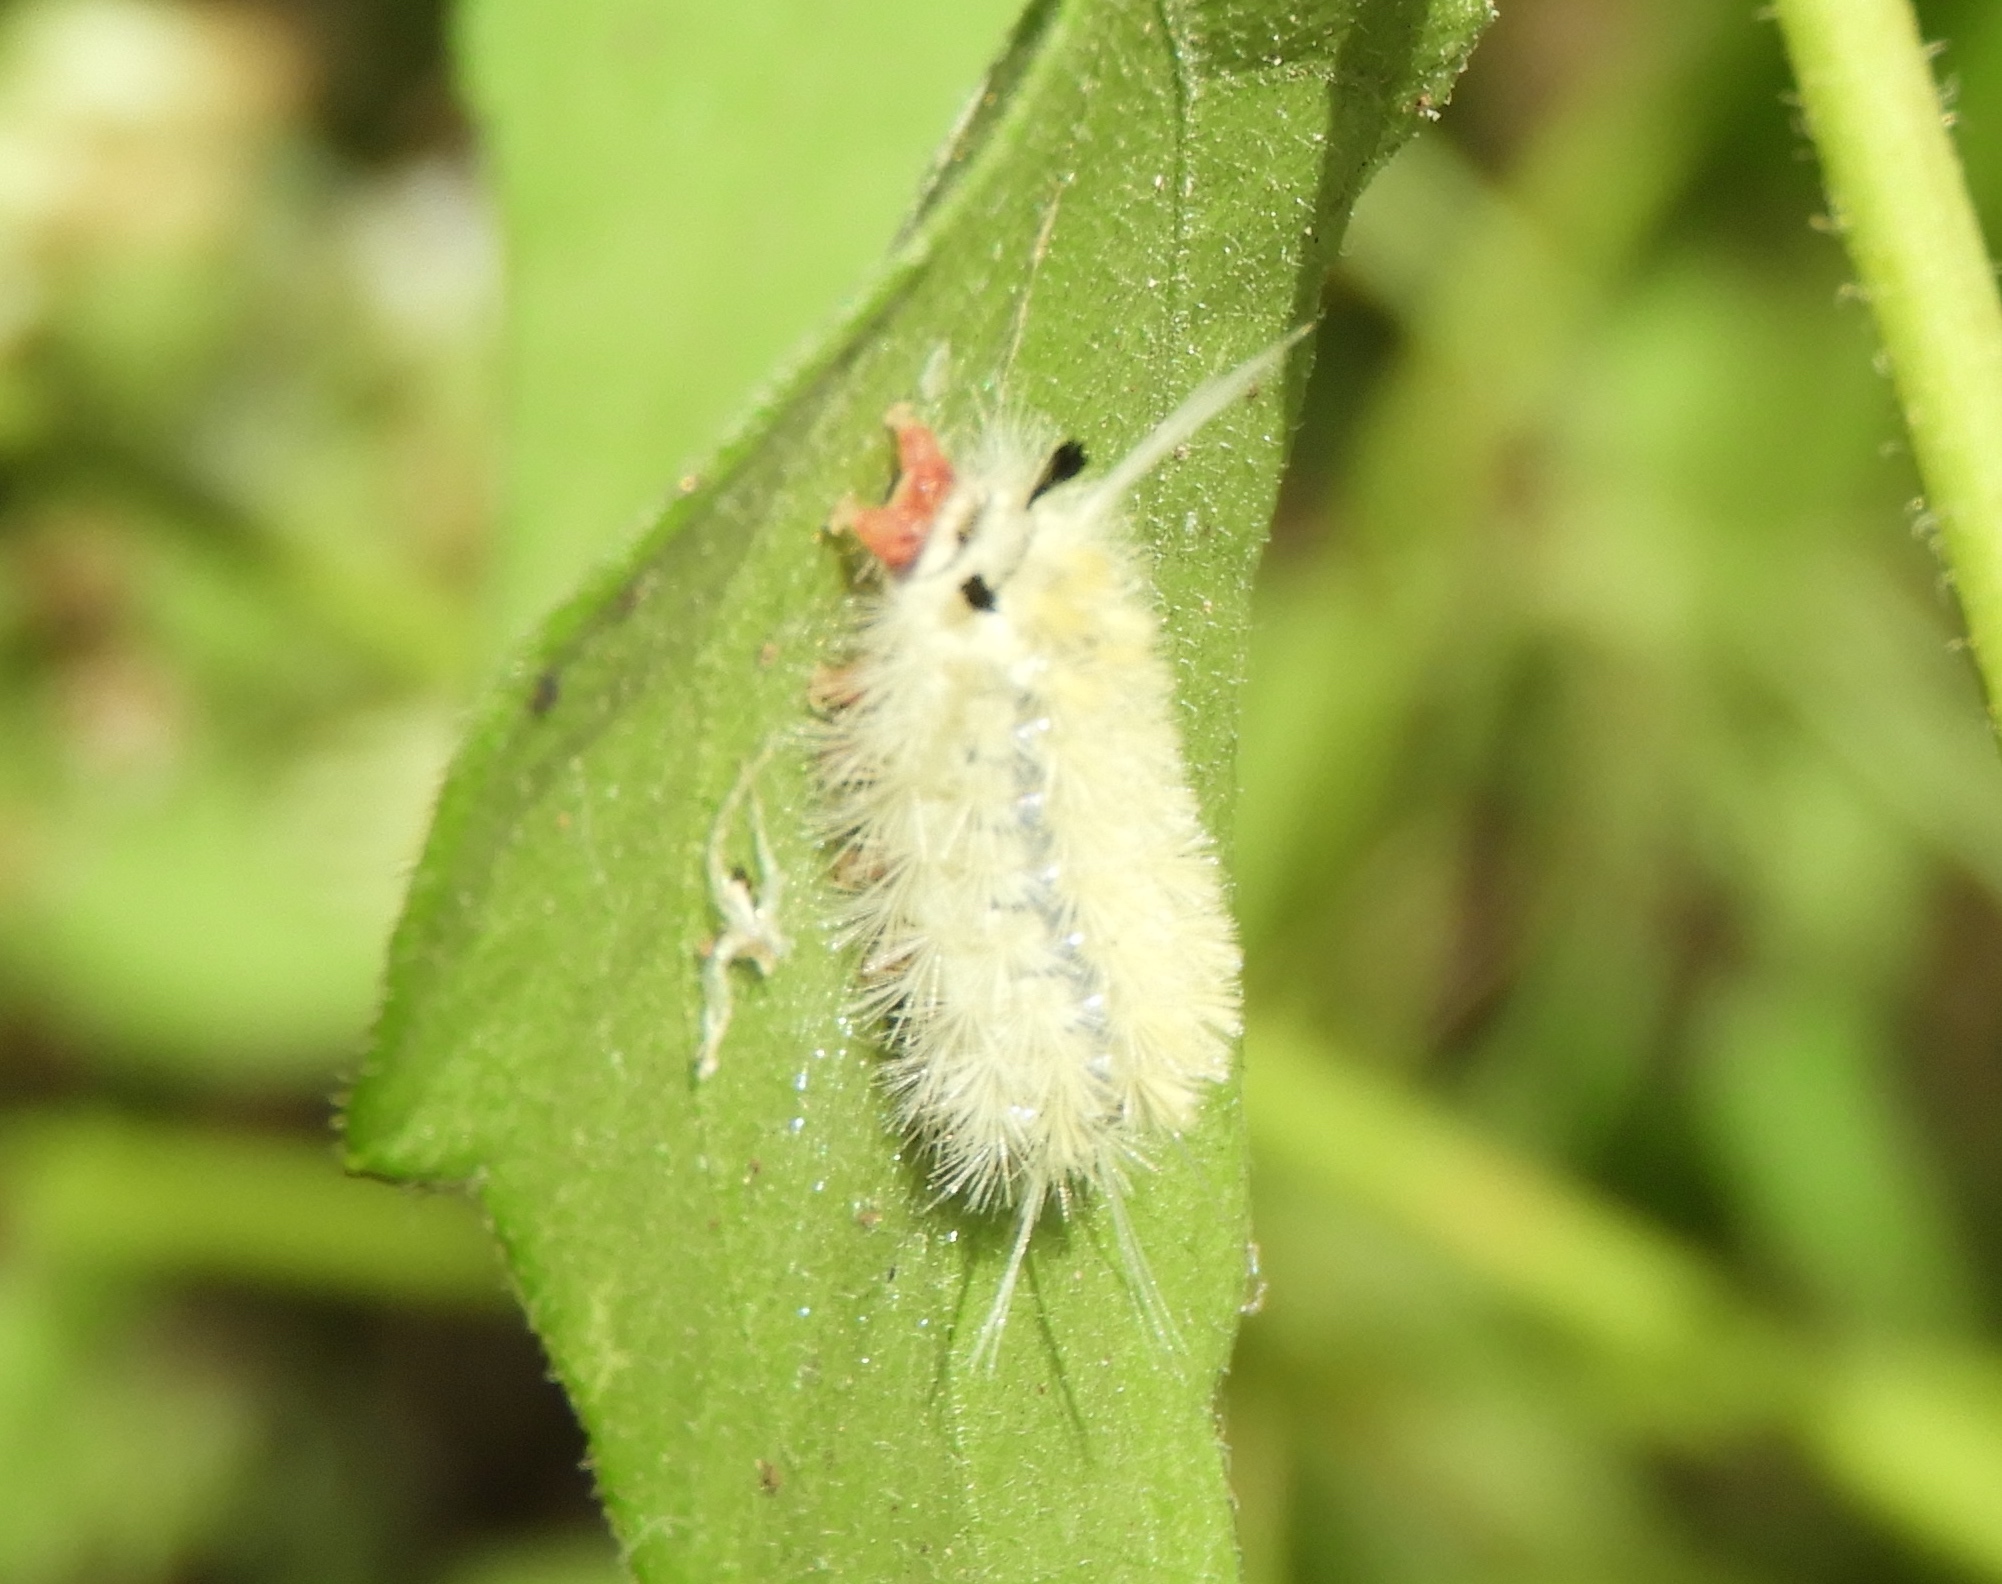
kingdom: Animalia
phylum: Arthropoda
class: Insecta
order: Lepidoptera
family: Erebidae
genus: Lophocampa
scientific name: Lophocampa
